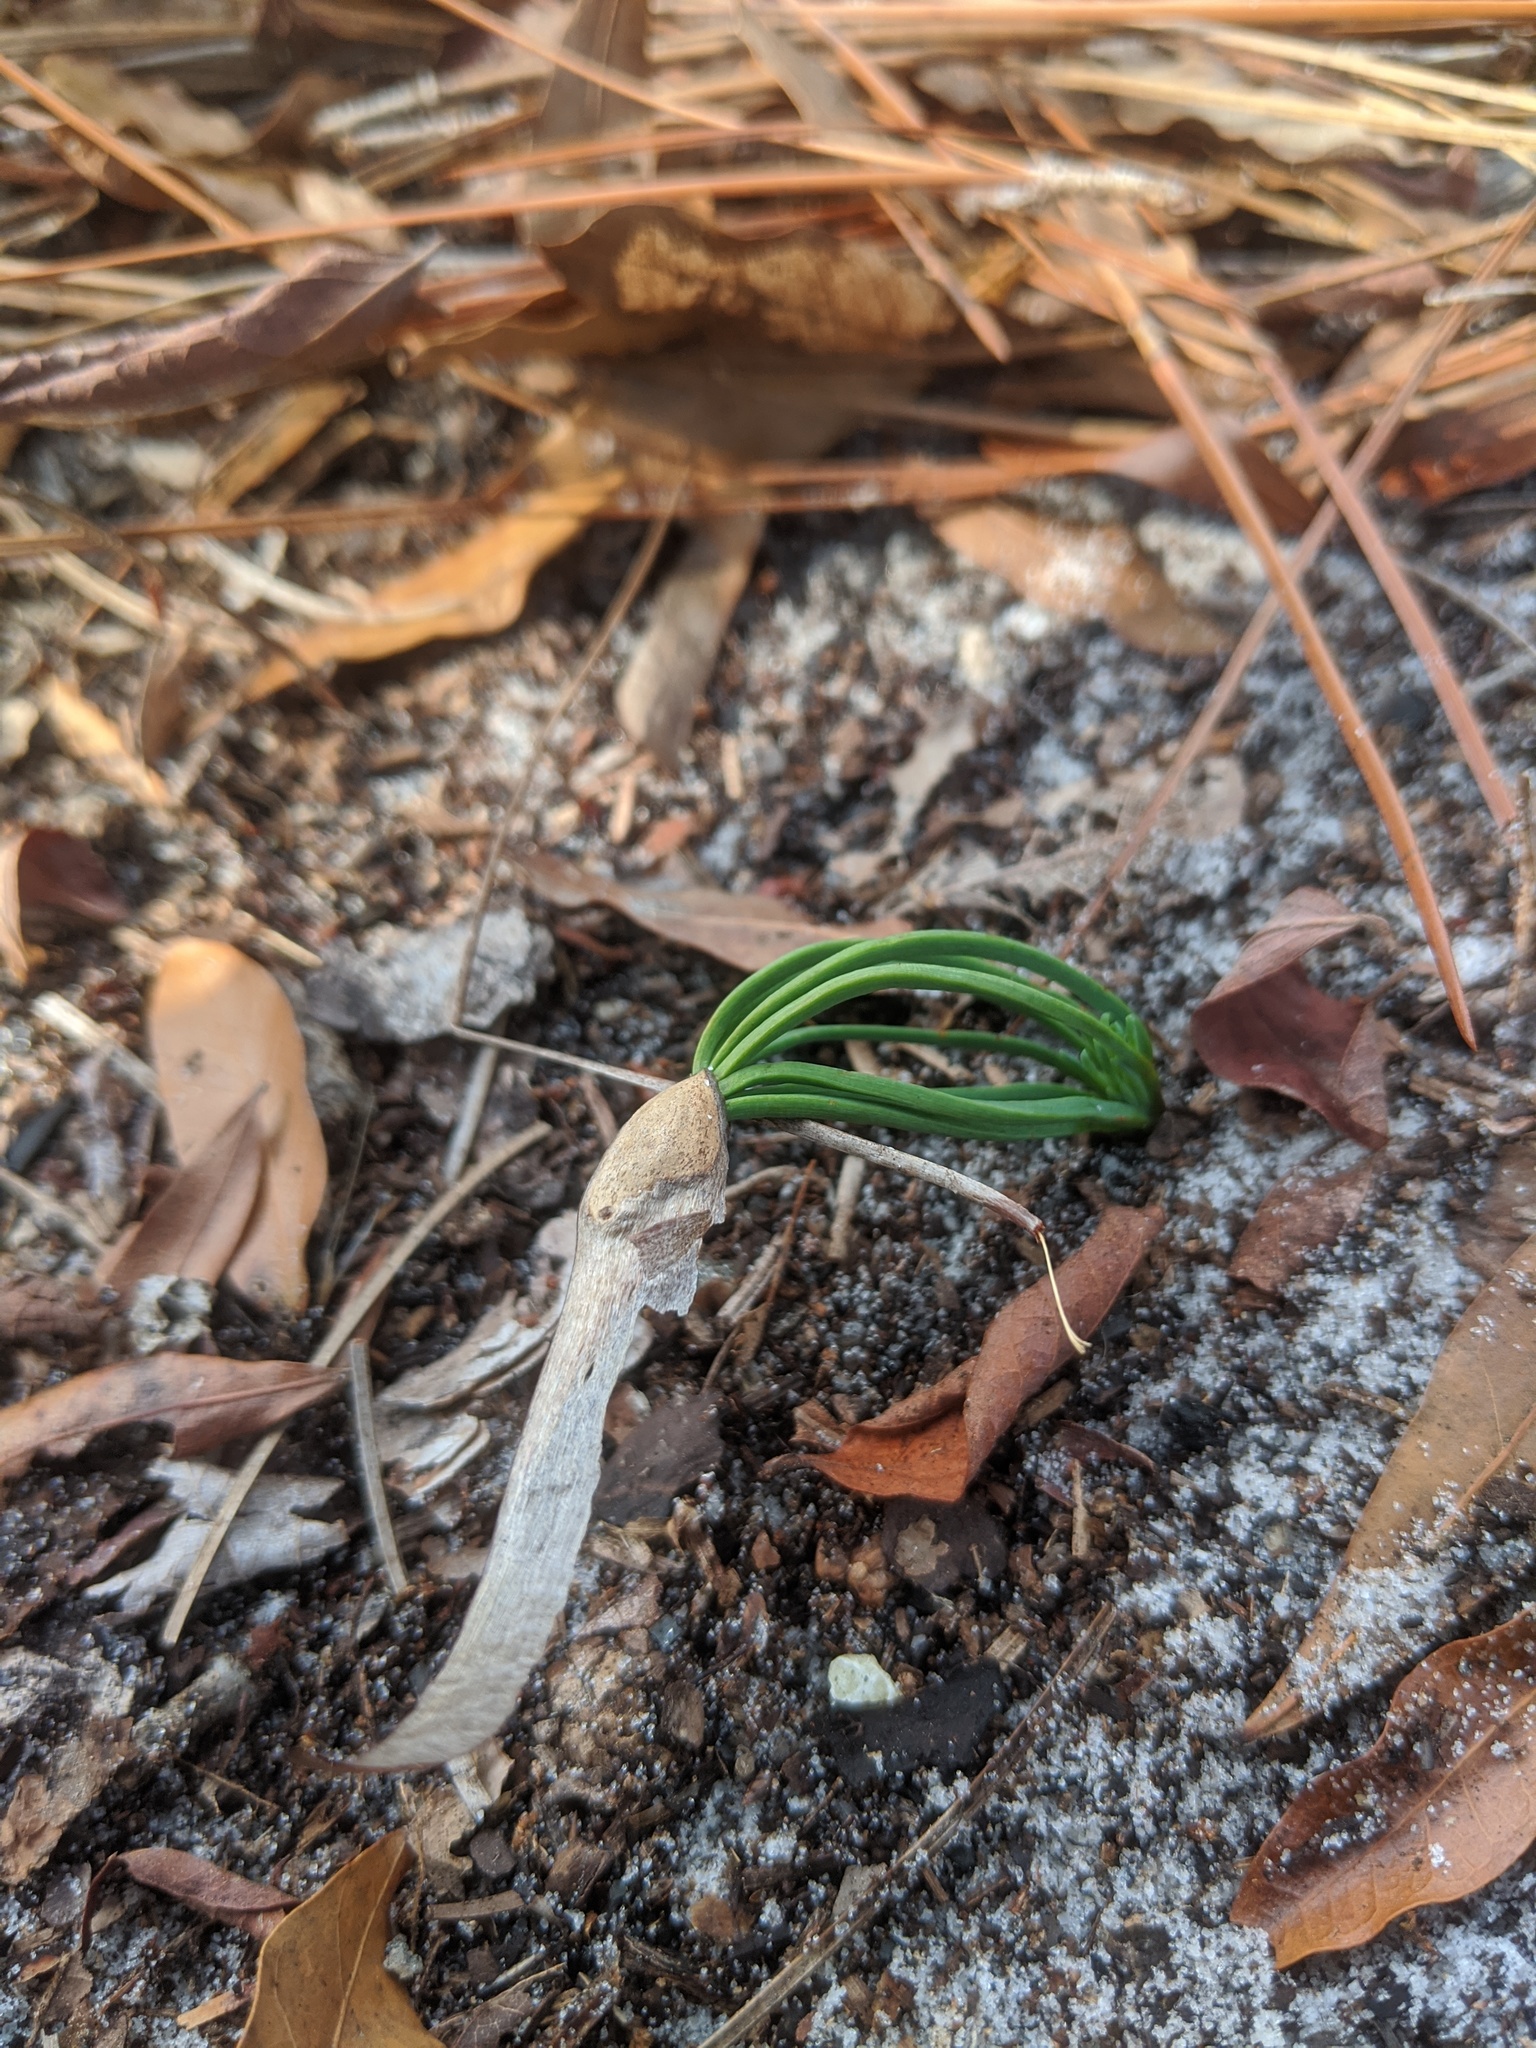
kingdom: Plantae
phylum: Tracheophyta
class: Pinopsida
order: Pinales
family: Pinaceae
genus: Pinus
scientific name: Pinus palustris
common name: Longleaf pine
